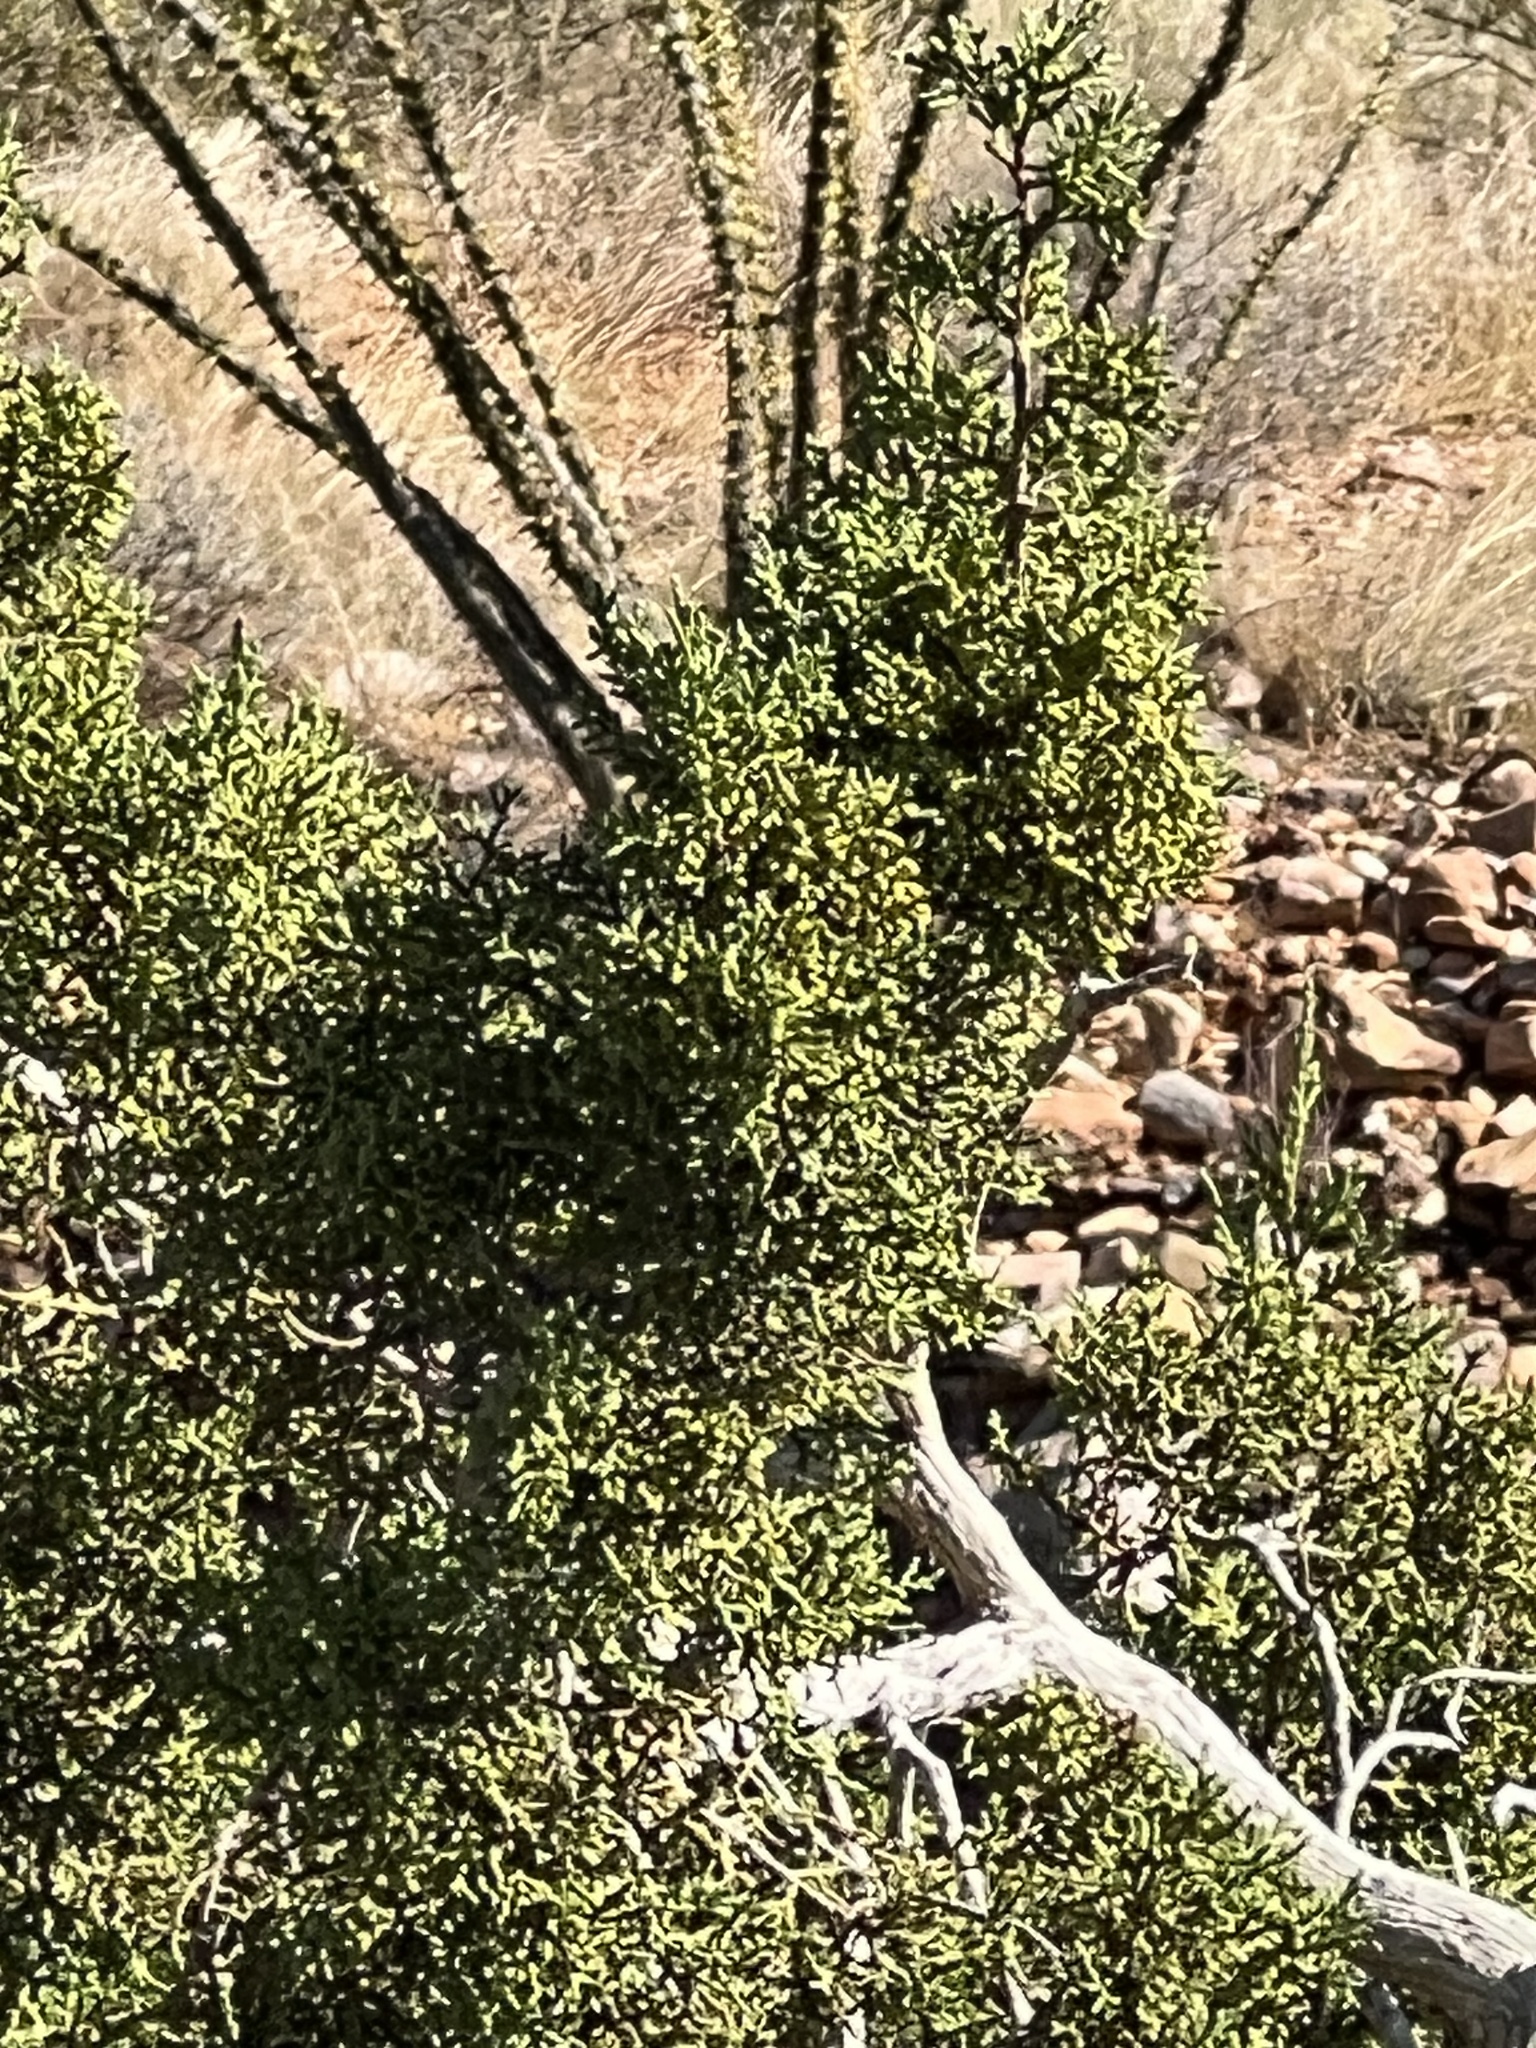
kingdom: Plantae
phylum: Tracheophyta
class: Pinopsida
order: Pinales
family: Cupressaceae
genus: Juniperus
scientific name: Juniperus monosperma
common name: One-seed juniper
